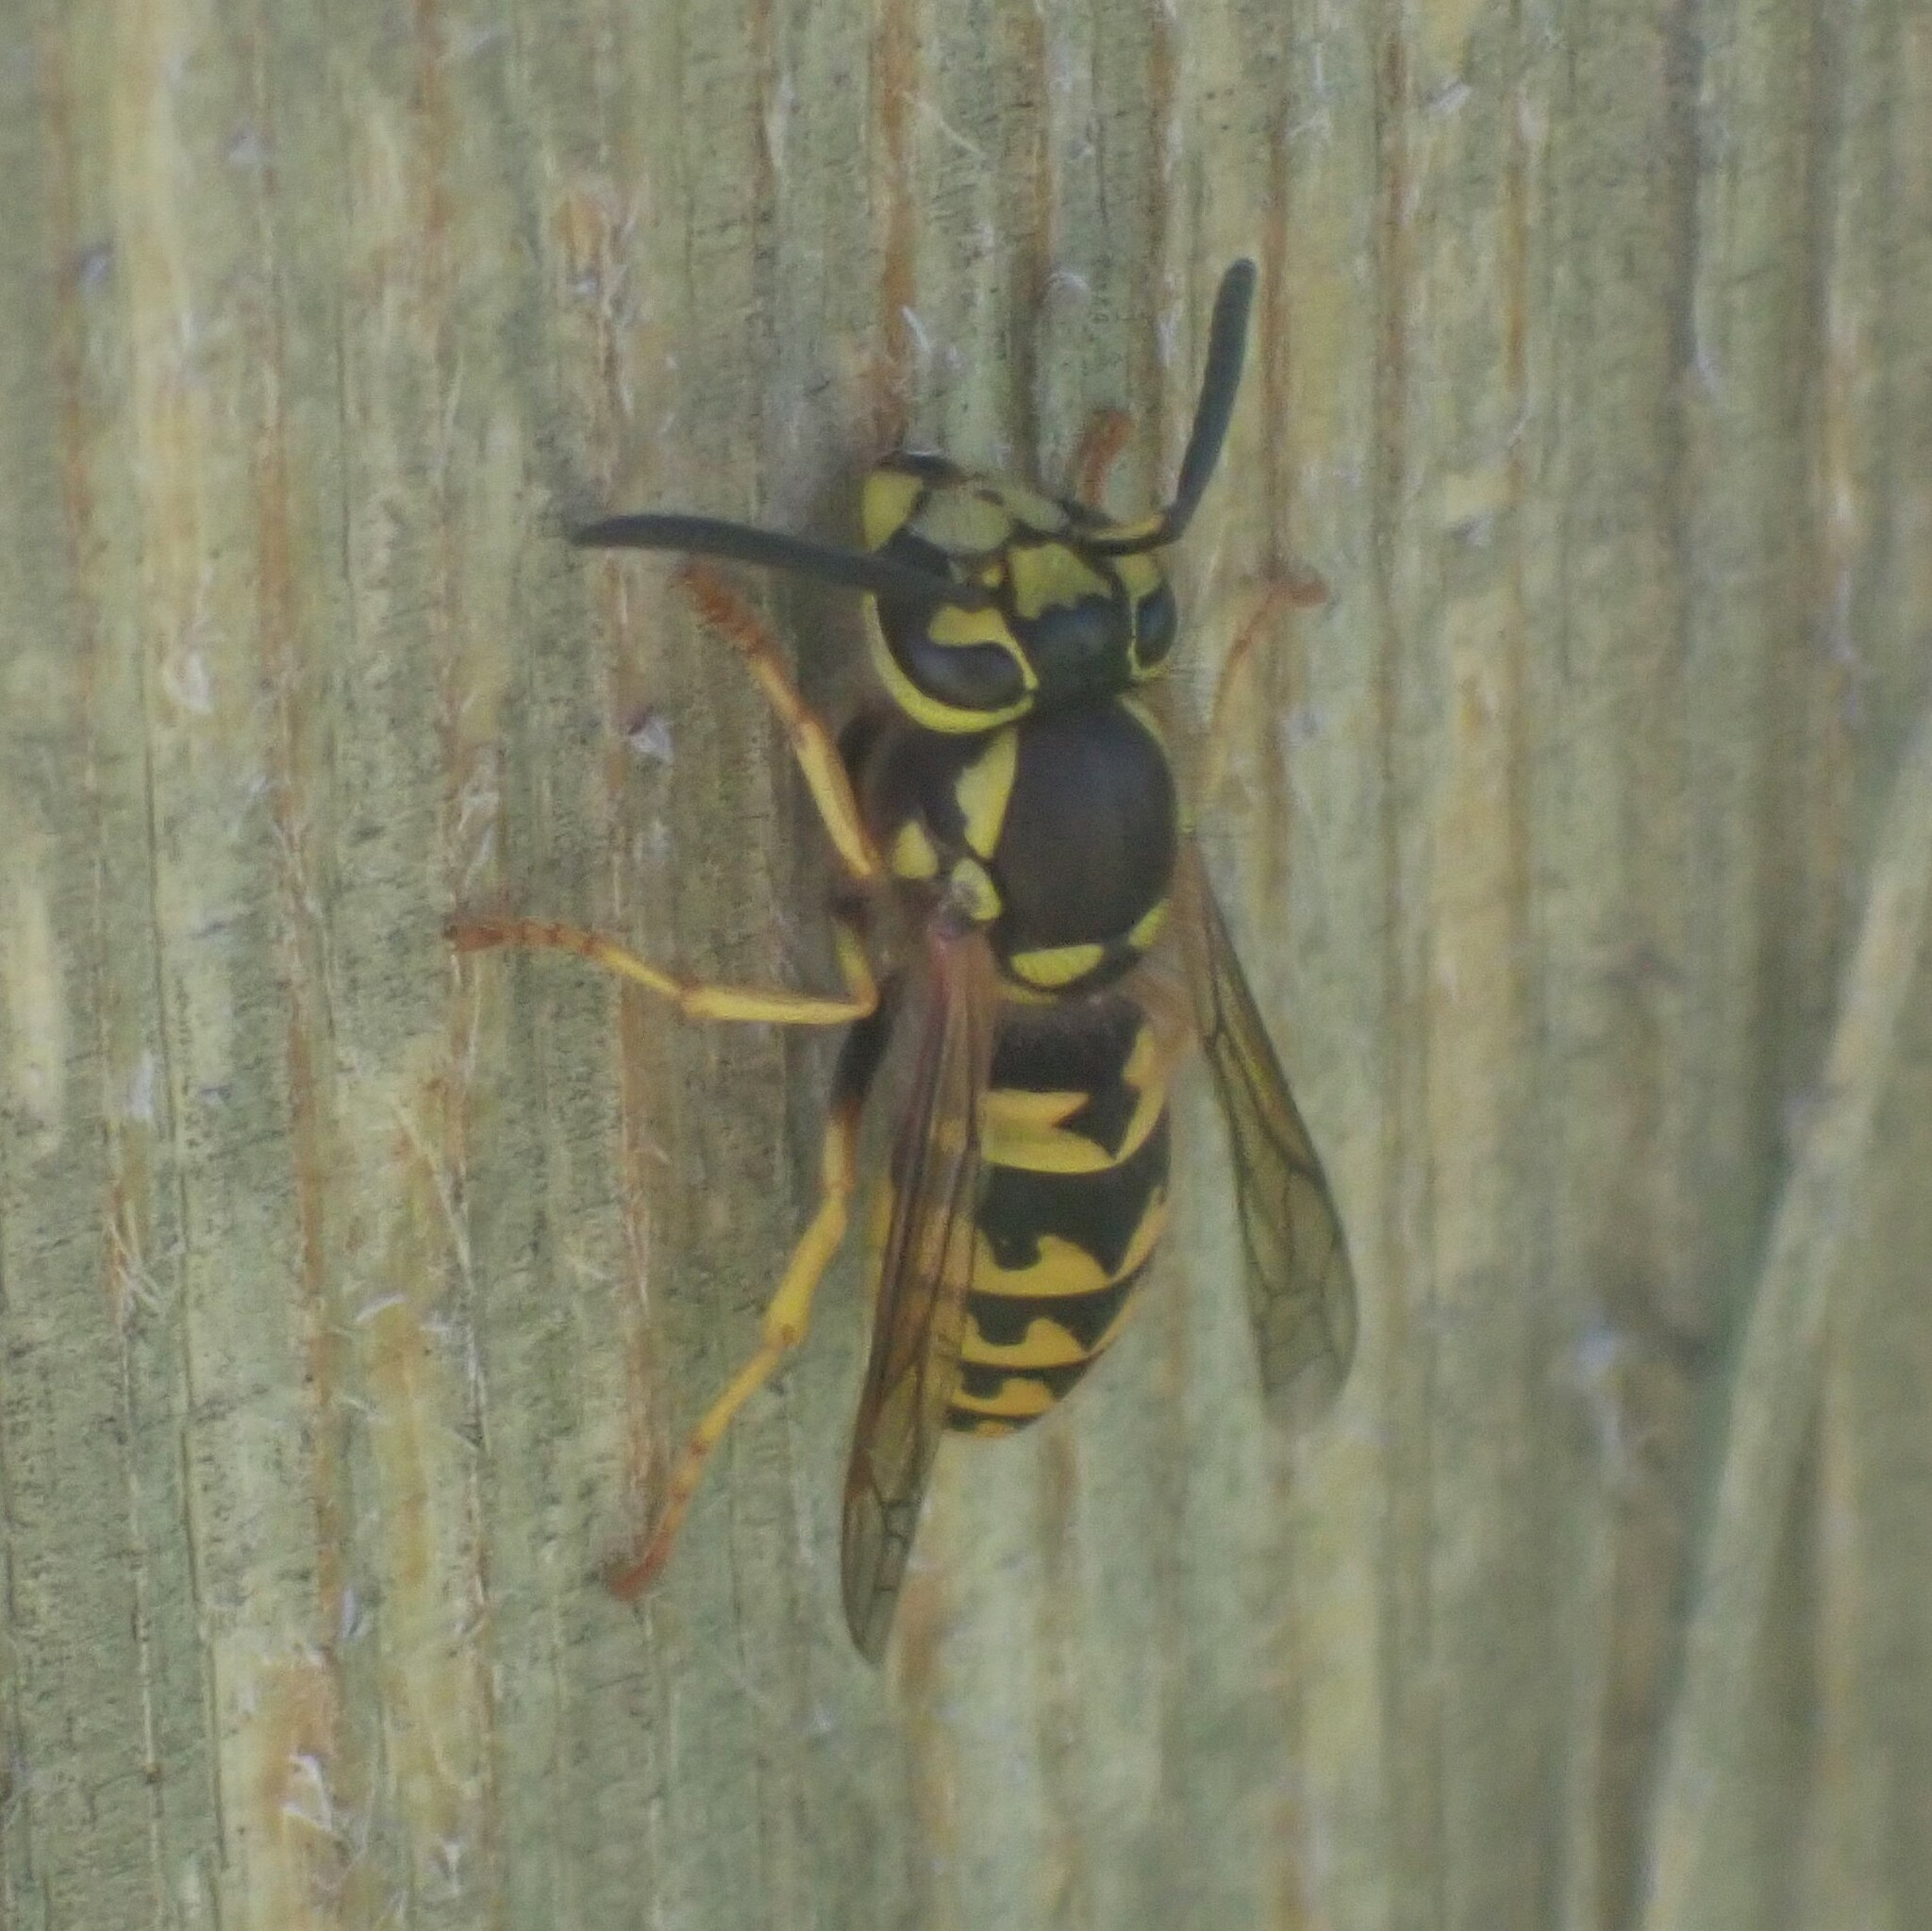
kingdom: Animalia
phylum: Arthropoda
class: Insecta
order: Hymenoptera
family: Vespidae
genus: Vespula
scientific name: Vespula pensylvanica
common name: Western yellowjacket
